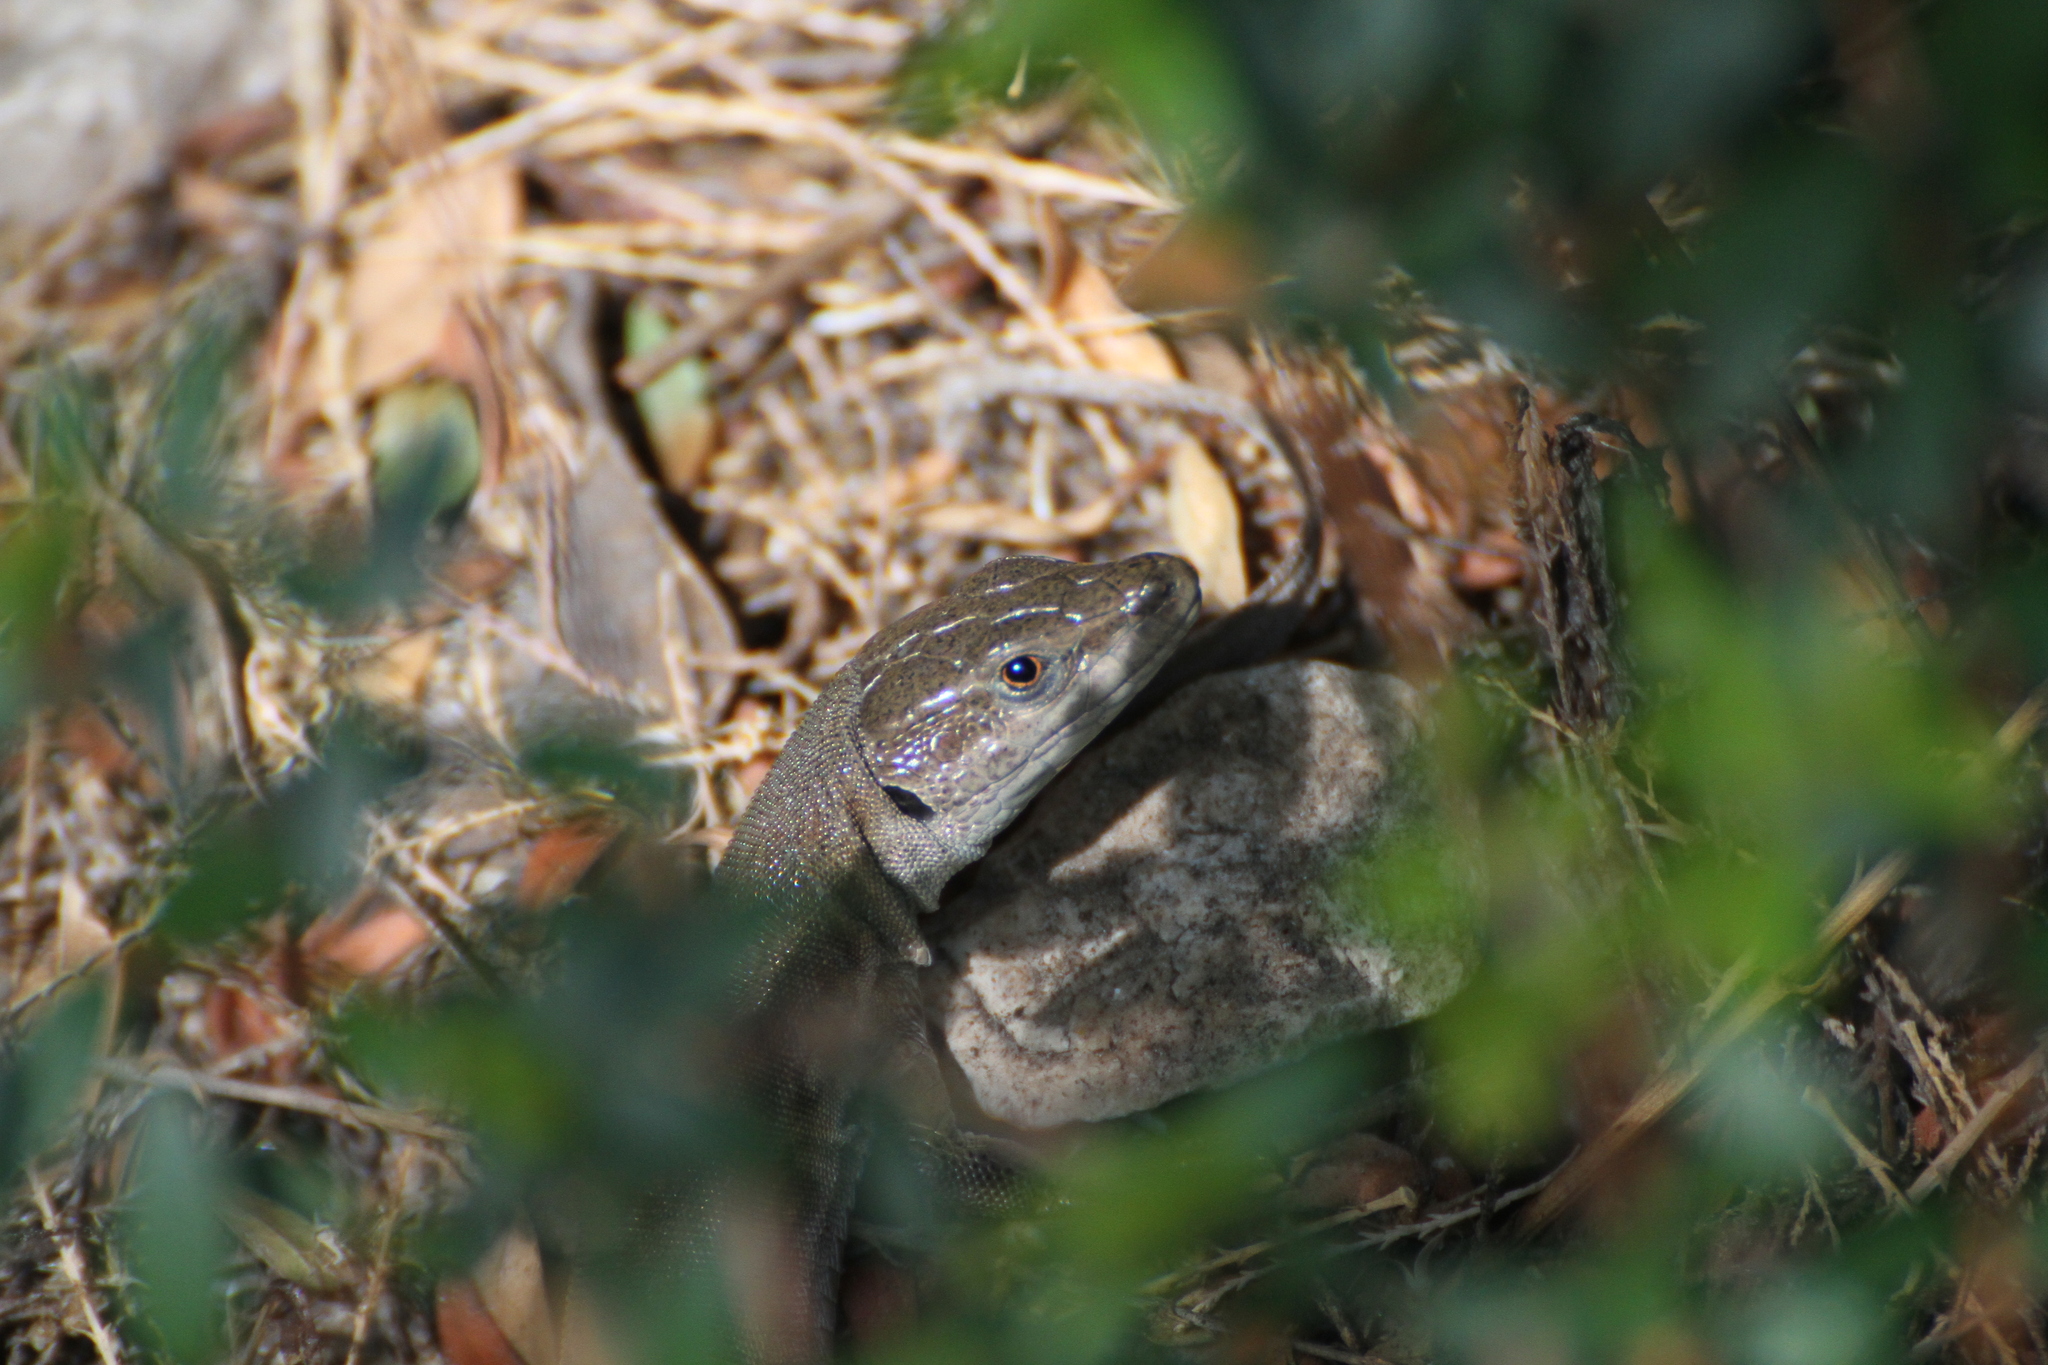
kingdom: Animalia
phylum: Chordata
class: Squamata
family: Lacertidae
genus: Podarcis
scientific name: Podarcis siculus
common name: Italian wall lizard
